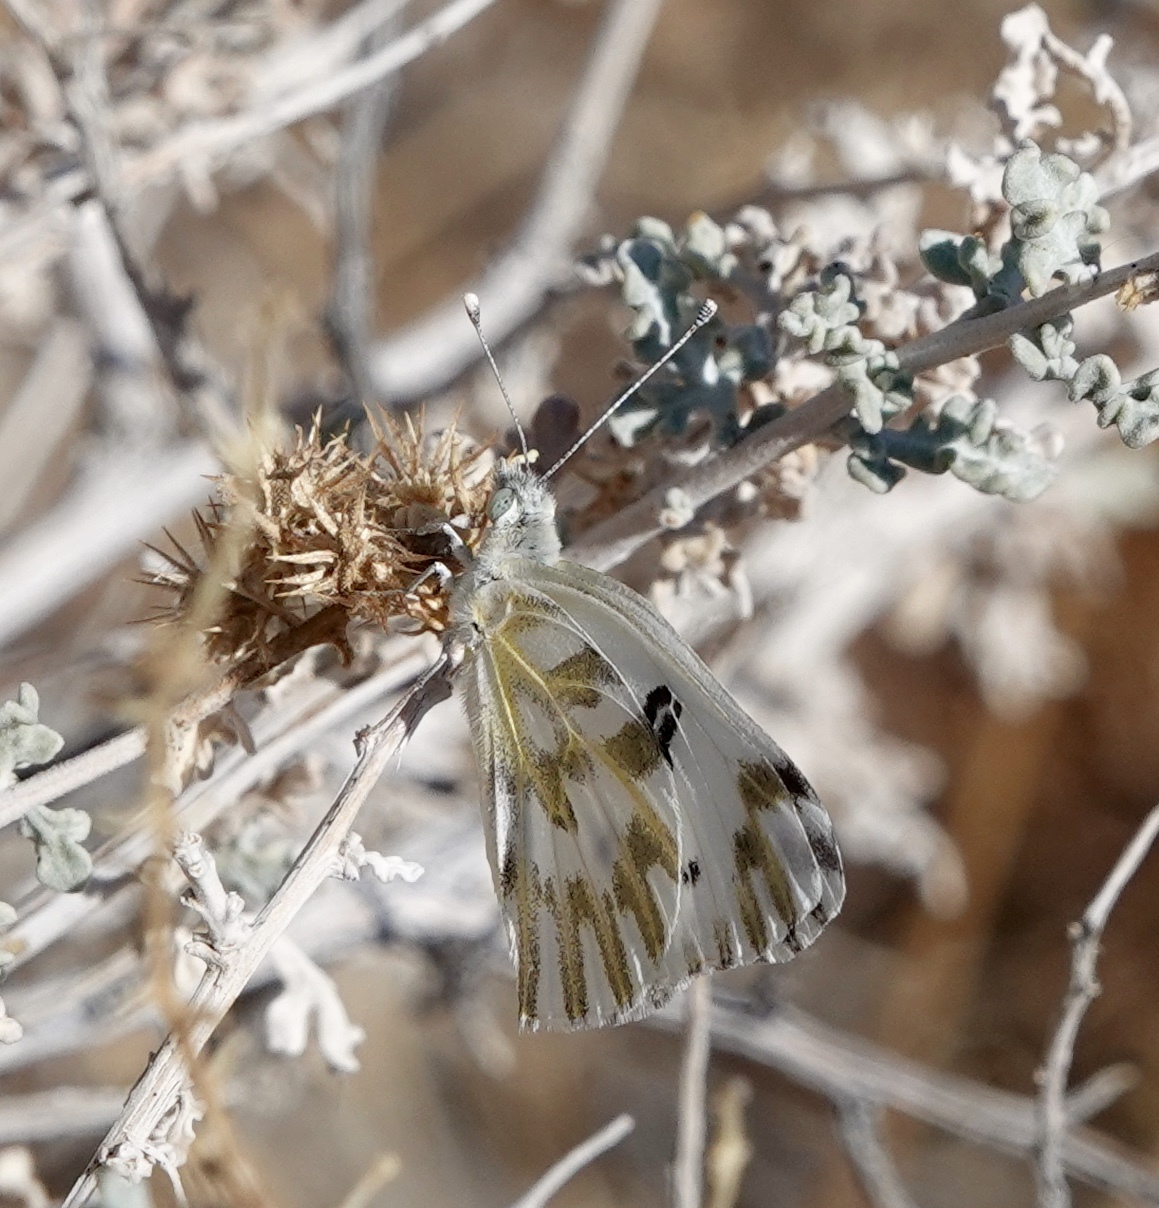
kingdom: Animalia
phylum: Arthropoda
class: Insecta
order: Lepidoptera
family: Pieridae
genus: Pontia
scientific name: Pontia beckerii
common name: Becker's white
